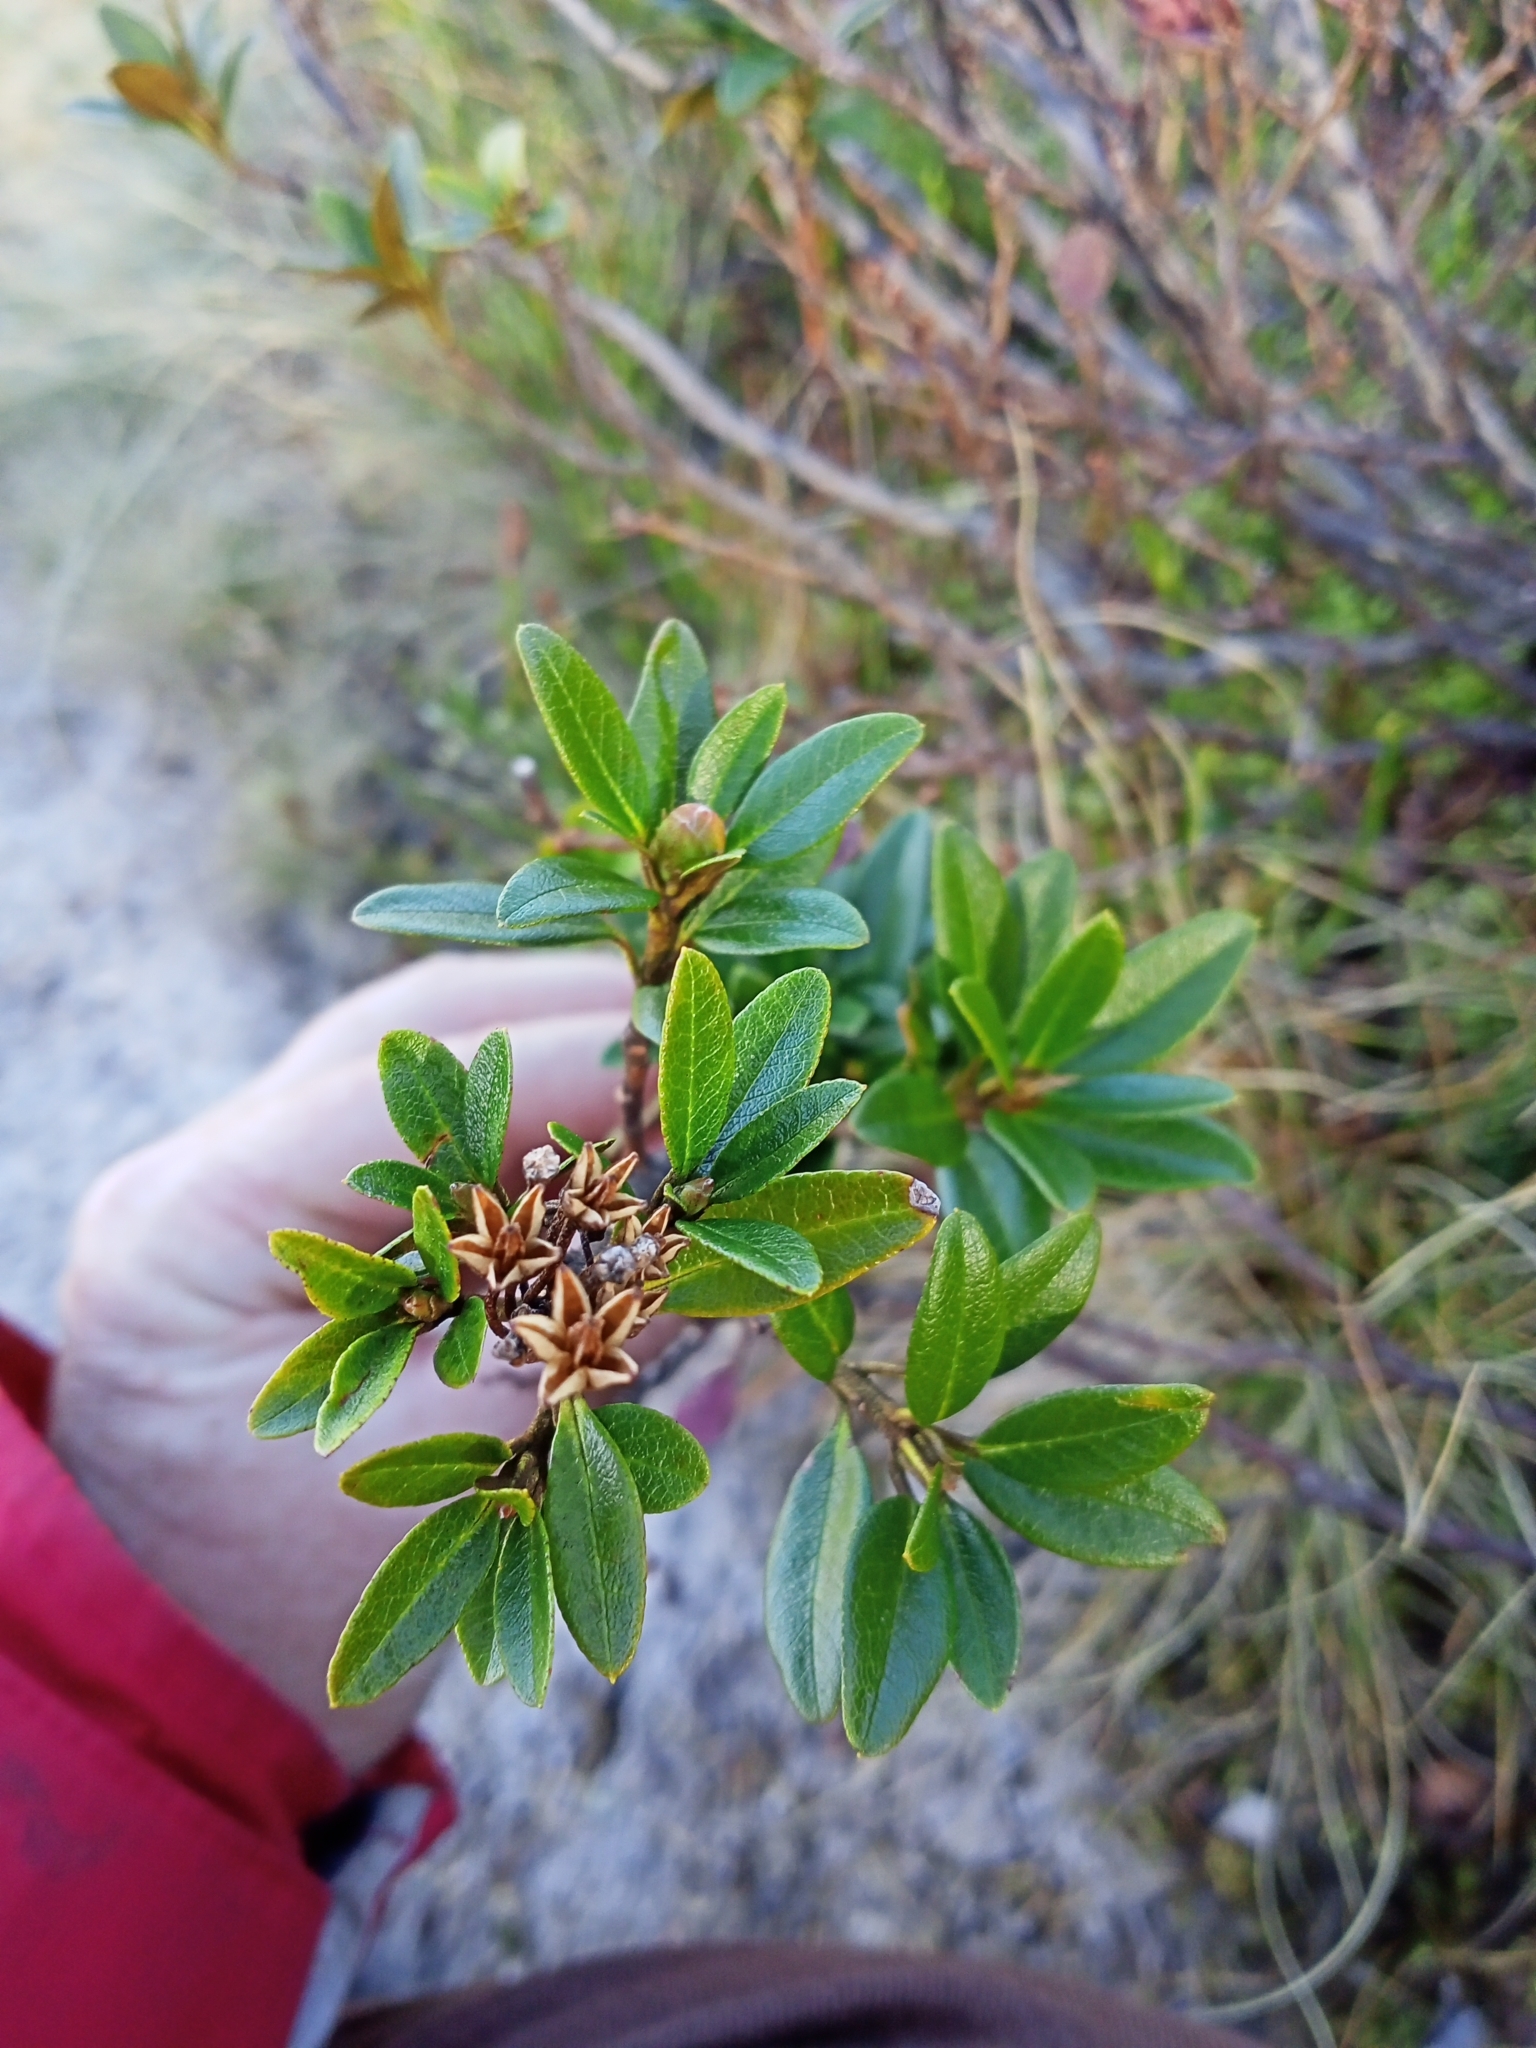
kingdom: Plantae
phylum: Tracheophyta
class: Magnoliopsida
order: Ericales
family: Ericaceae
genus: Rhododendron
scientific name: Rhododendron ferrugineum
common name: Alpenrose
